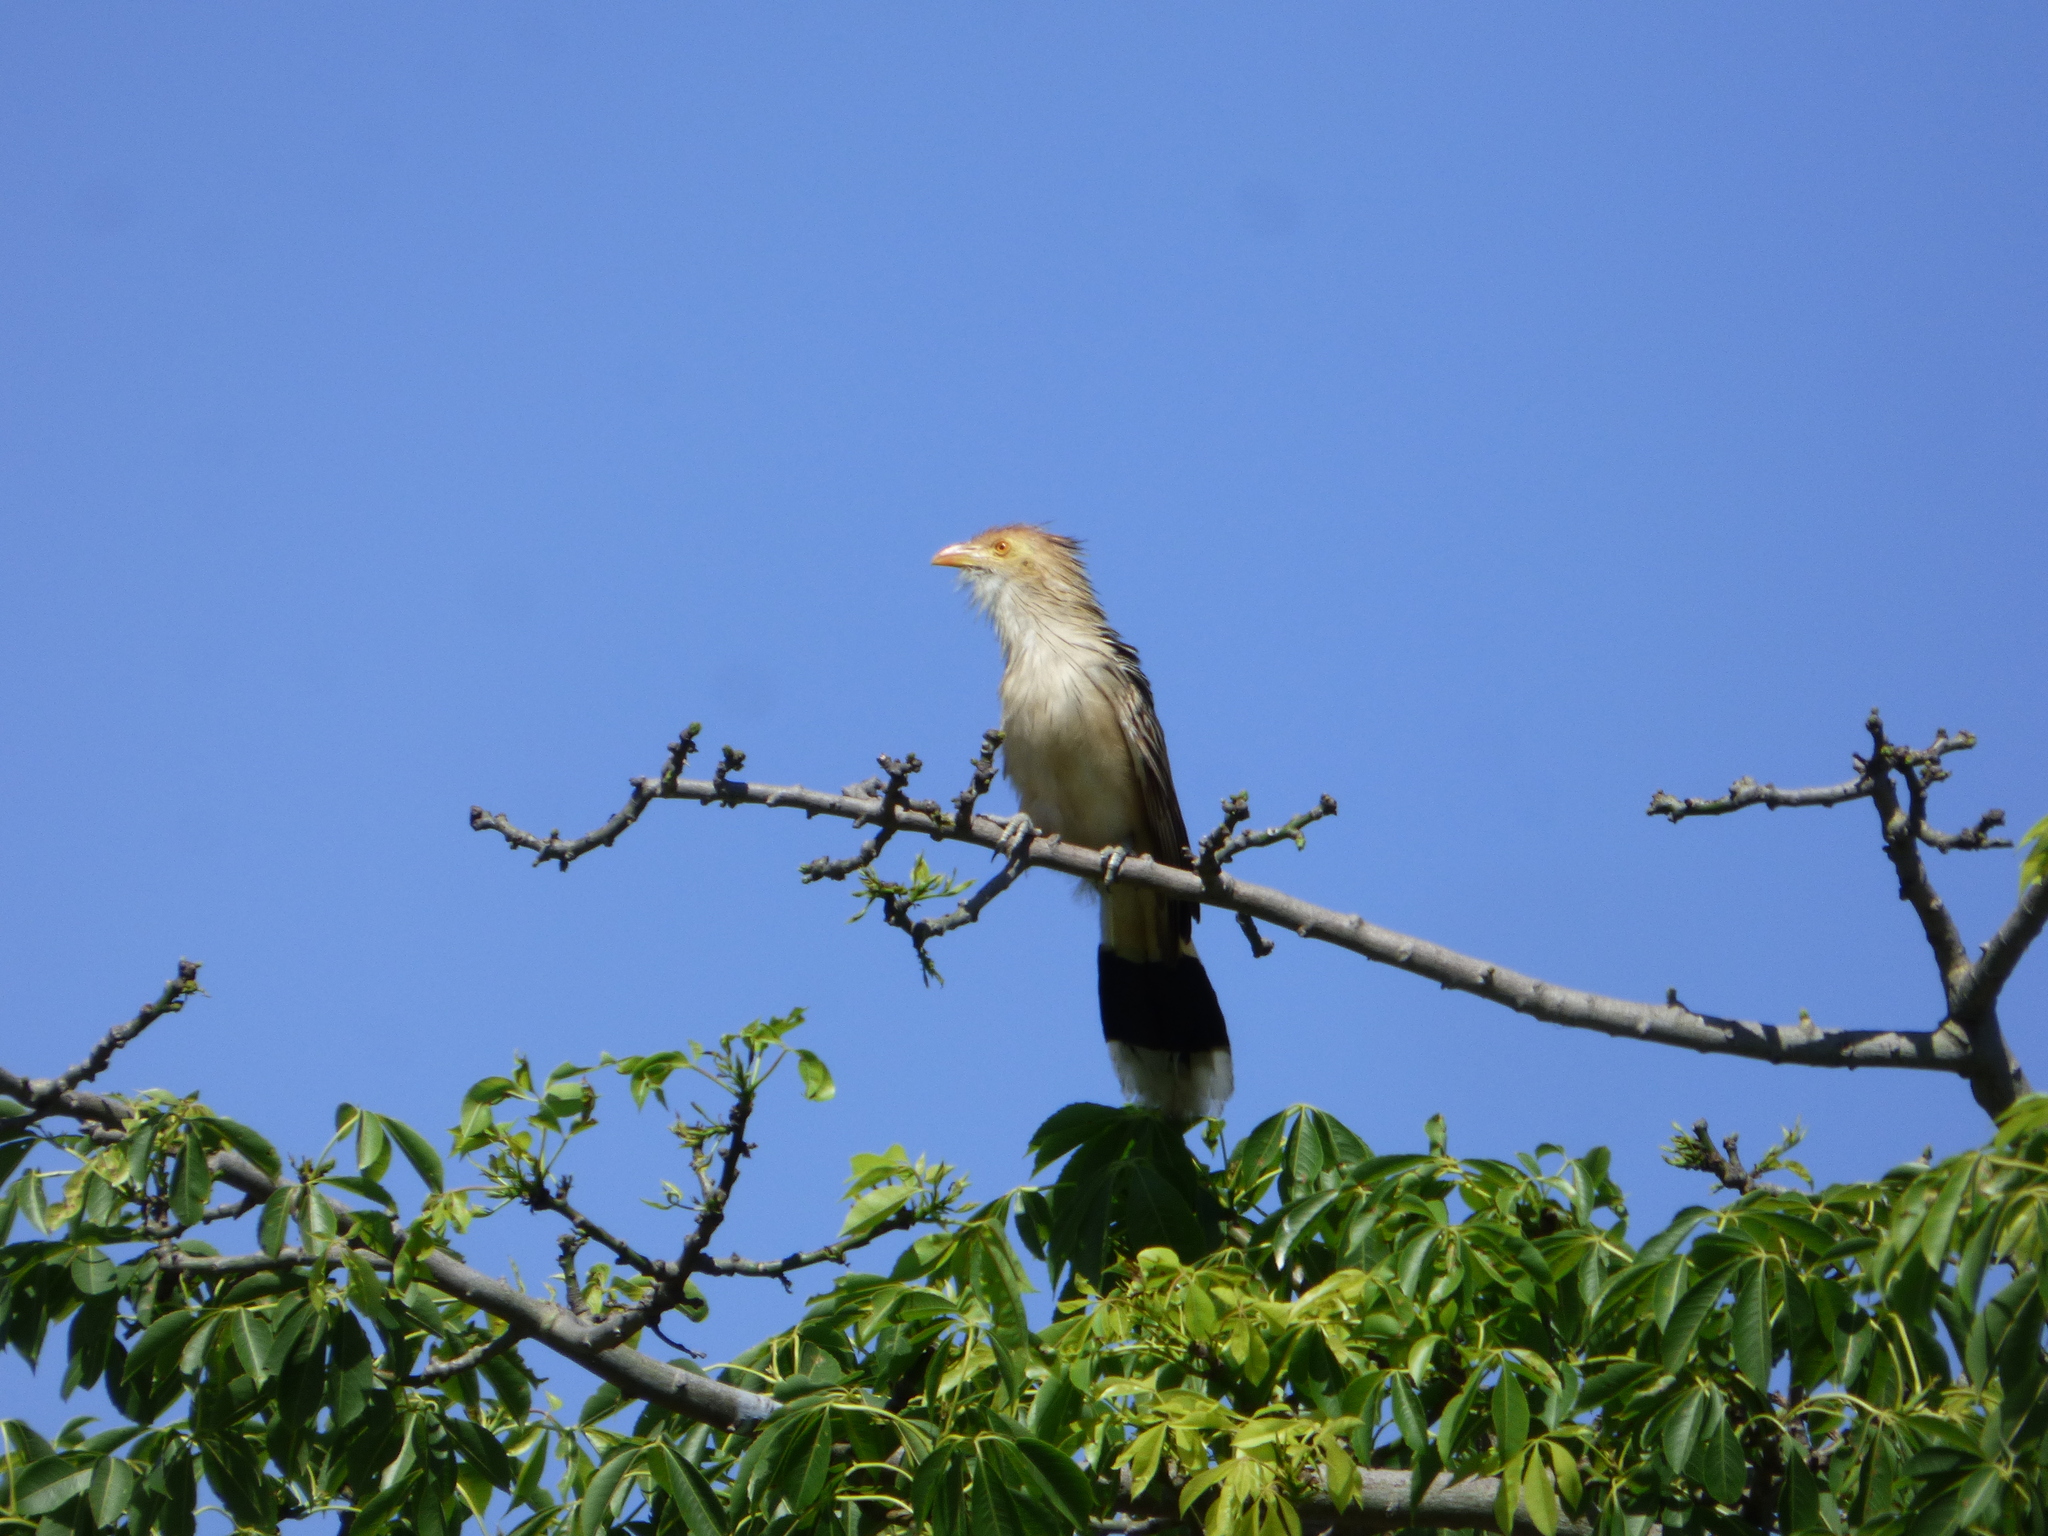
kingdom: Animalia
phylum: Chordata
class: Aves
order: Cuculiformes
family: Cuculidae
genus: Guira
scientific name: Guira guira
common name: Guira cuckoo
